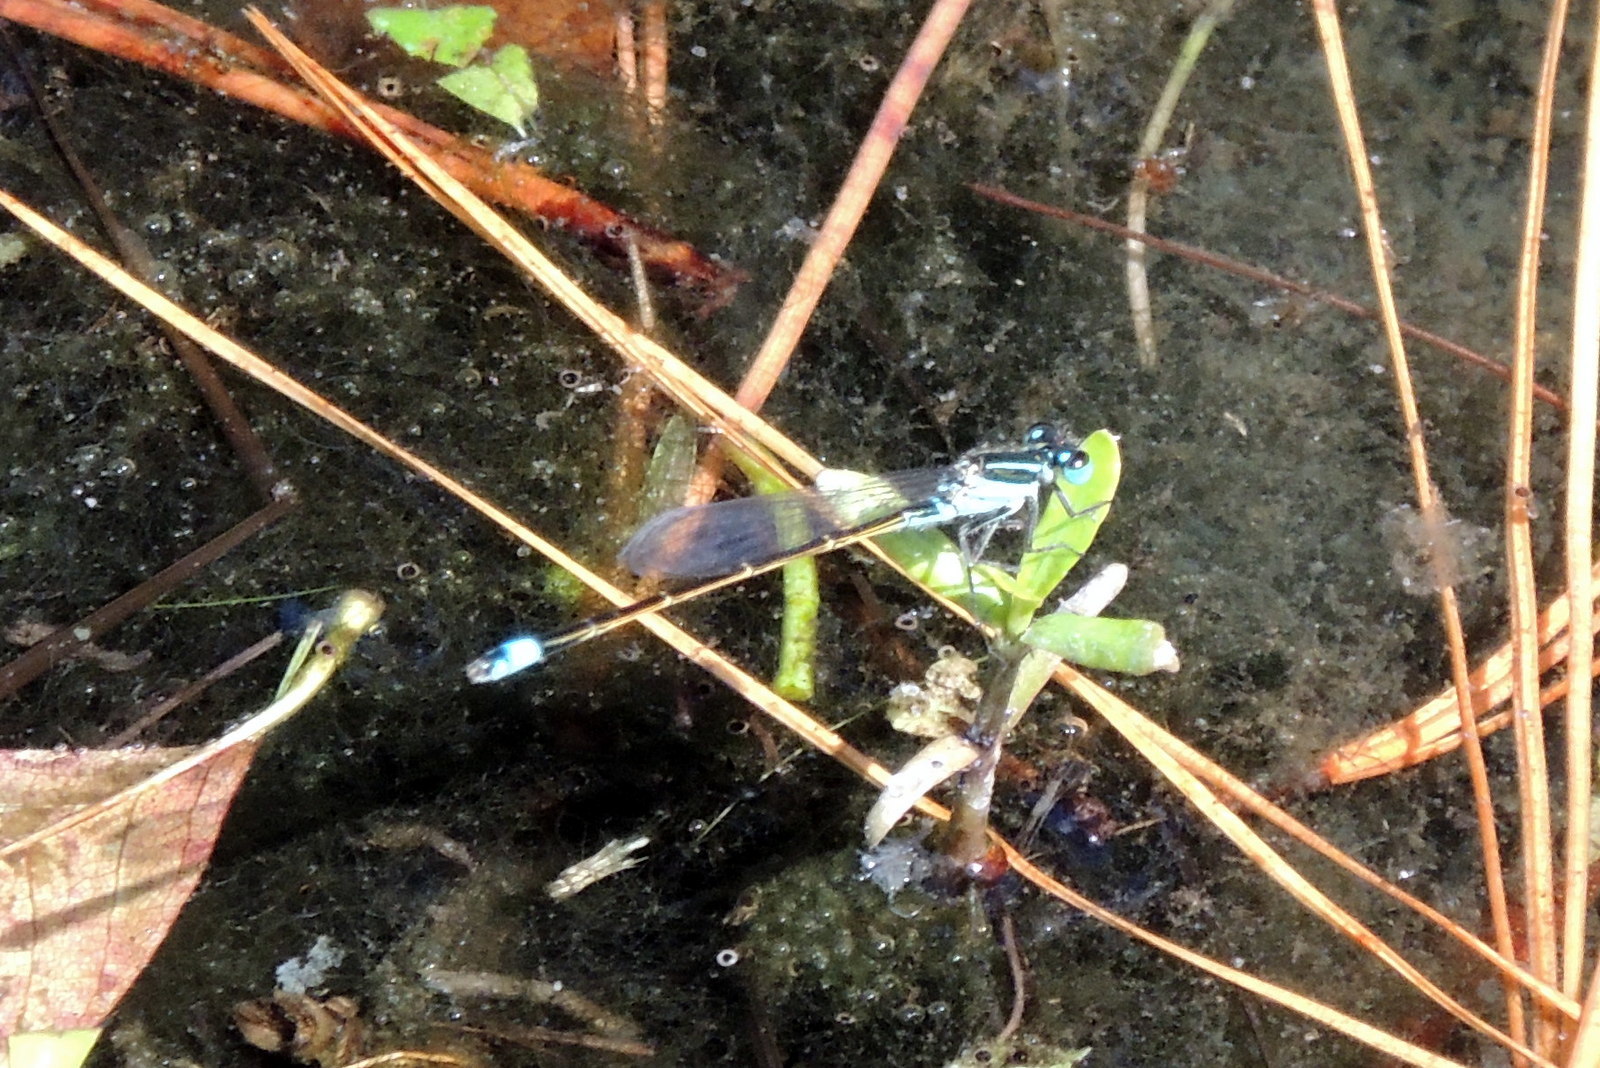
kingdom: Animalia
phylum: Arthropoda
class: Insecta
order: Odonata
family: Coenagrionidae
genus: Ischnura
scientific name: Ischnura ramburii
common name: Rambur's forktail
